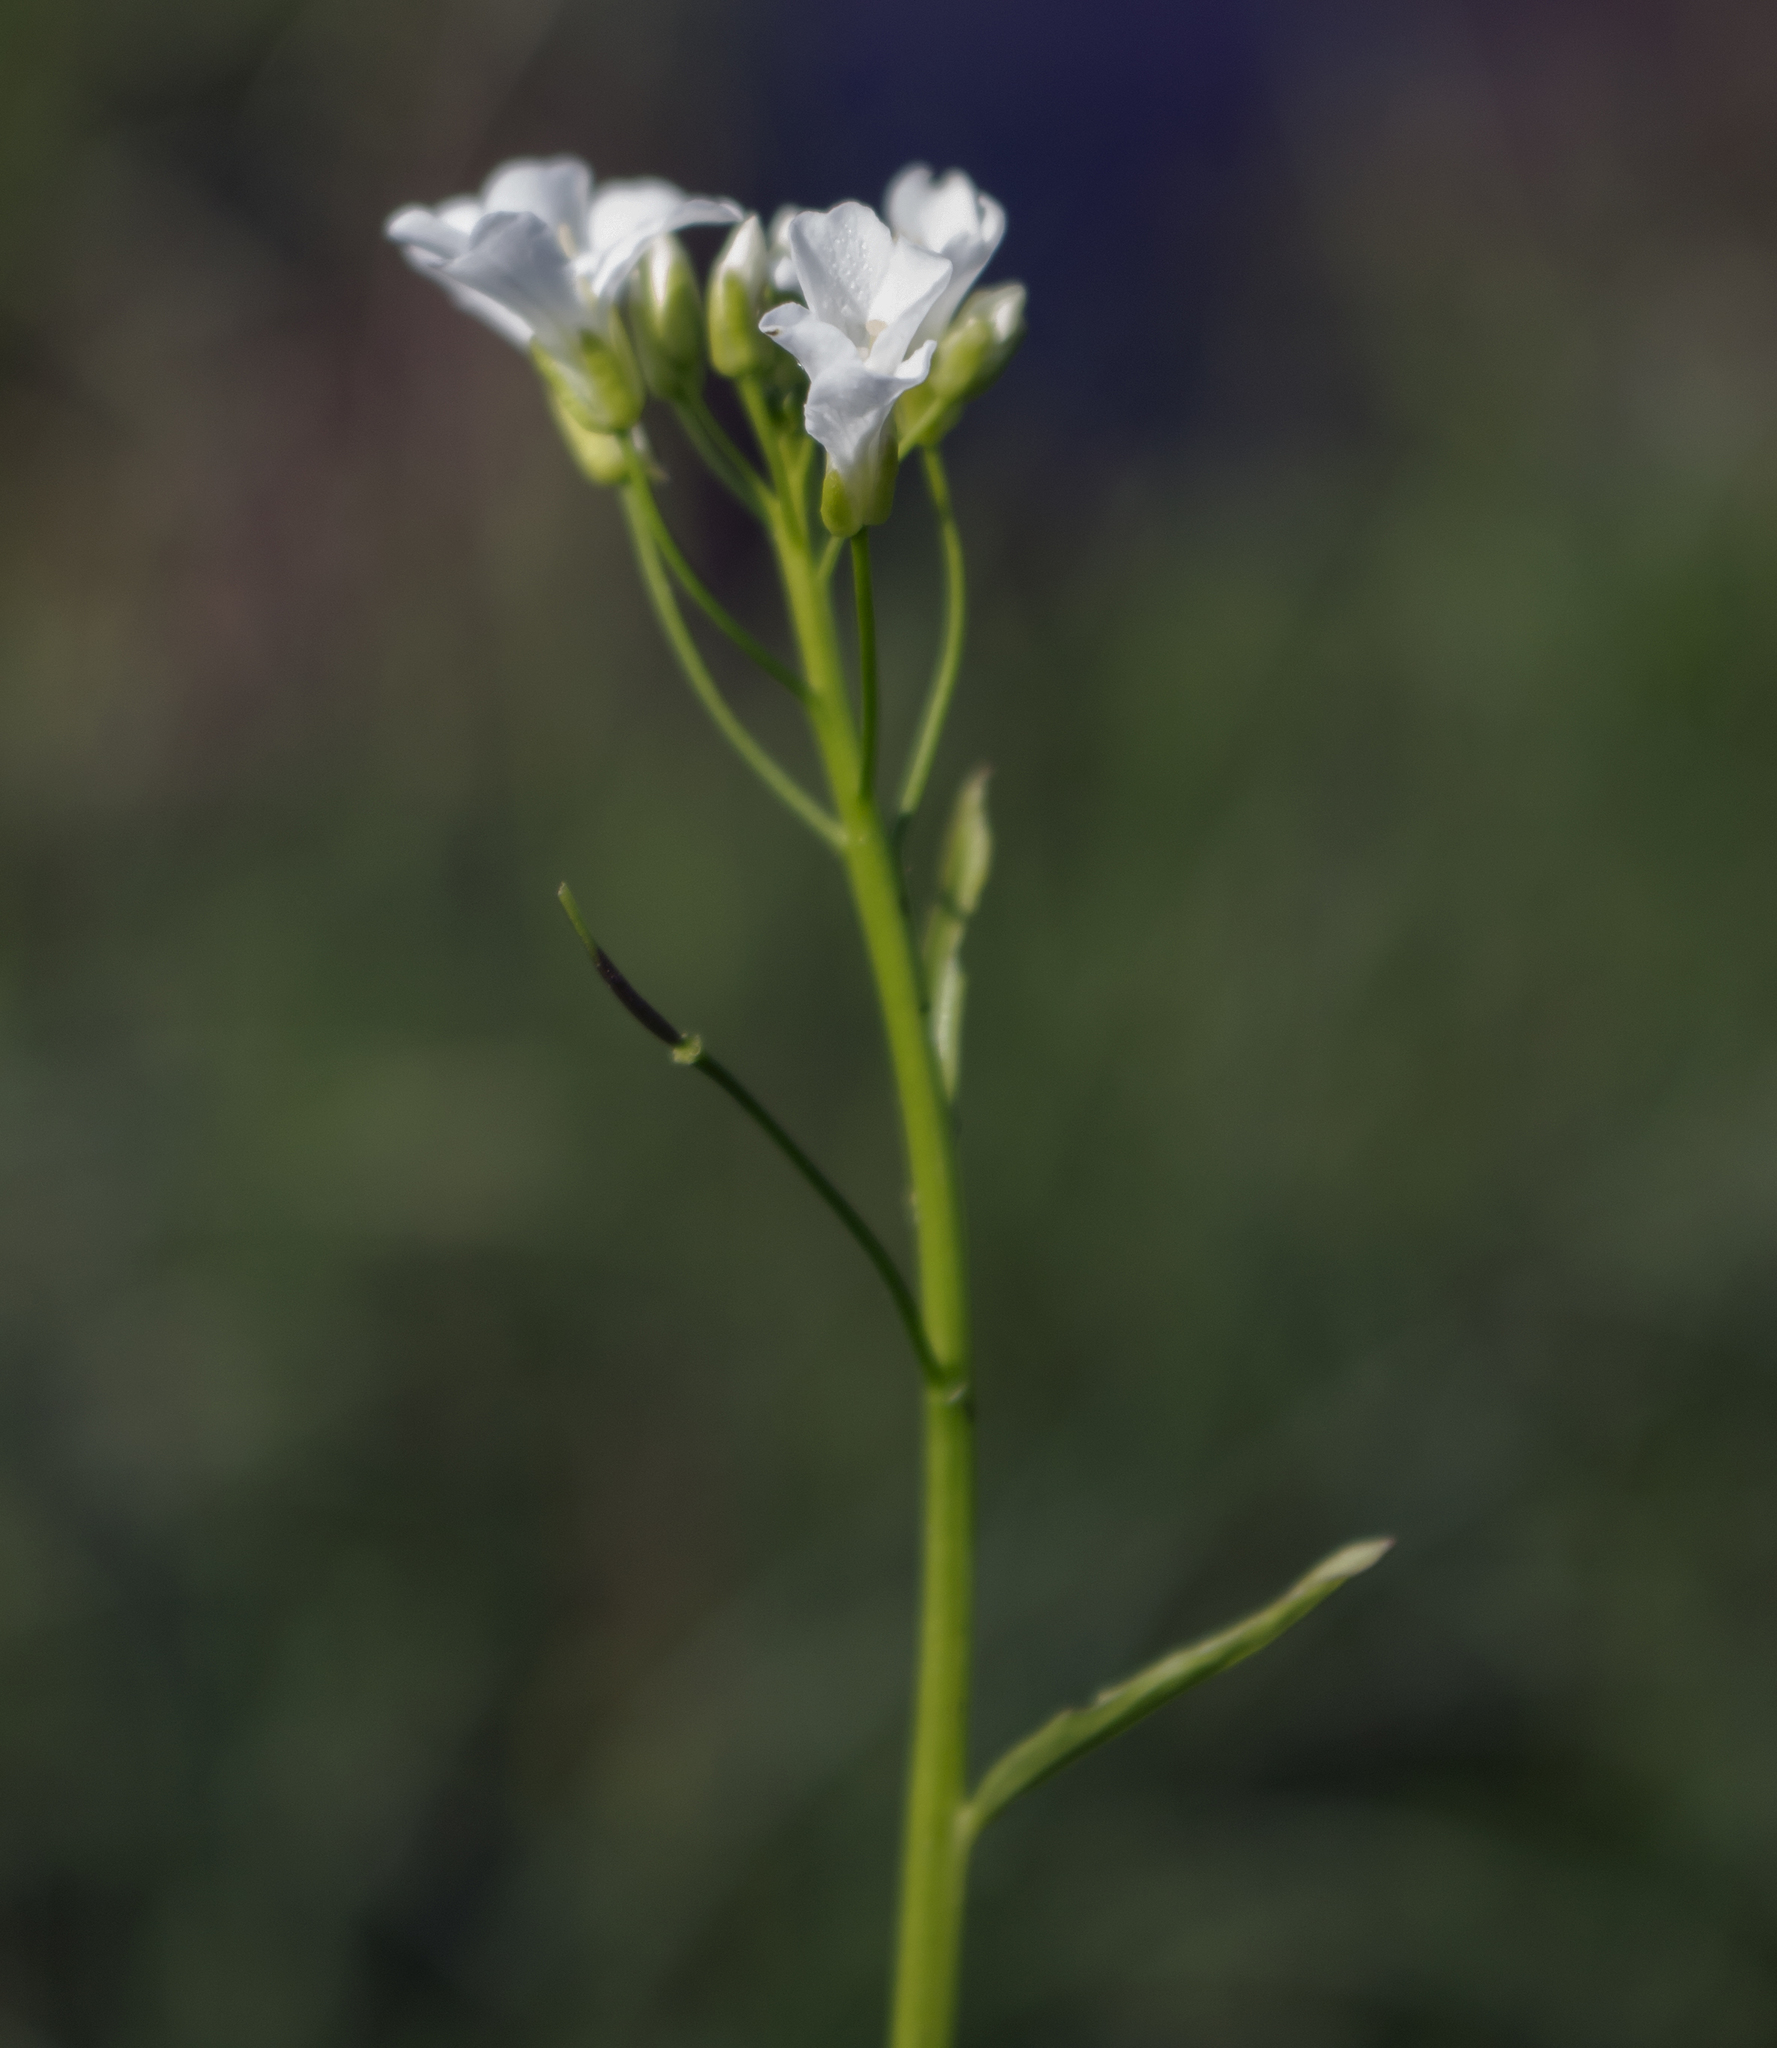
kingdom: Plantae
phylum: Tracheophyta
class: Magnoliopsida
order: Brassicales
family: Brassicaceae
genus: Cardamine
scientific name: Cardamine bulbosa
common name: Spring cress
